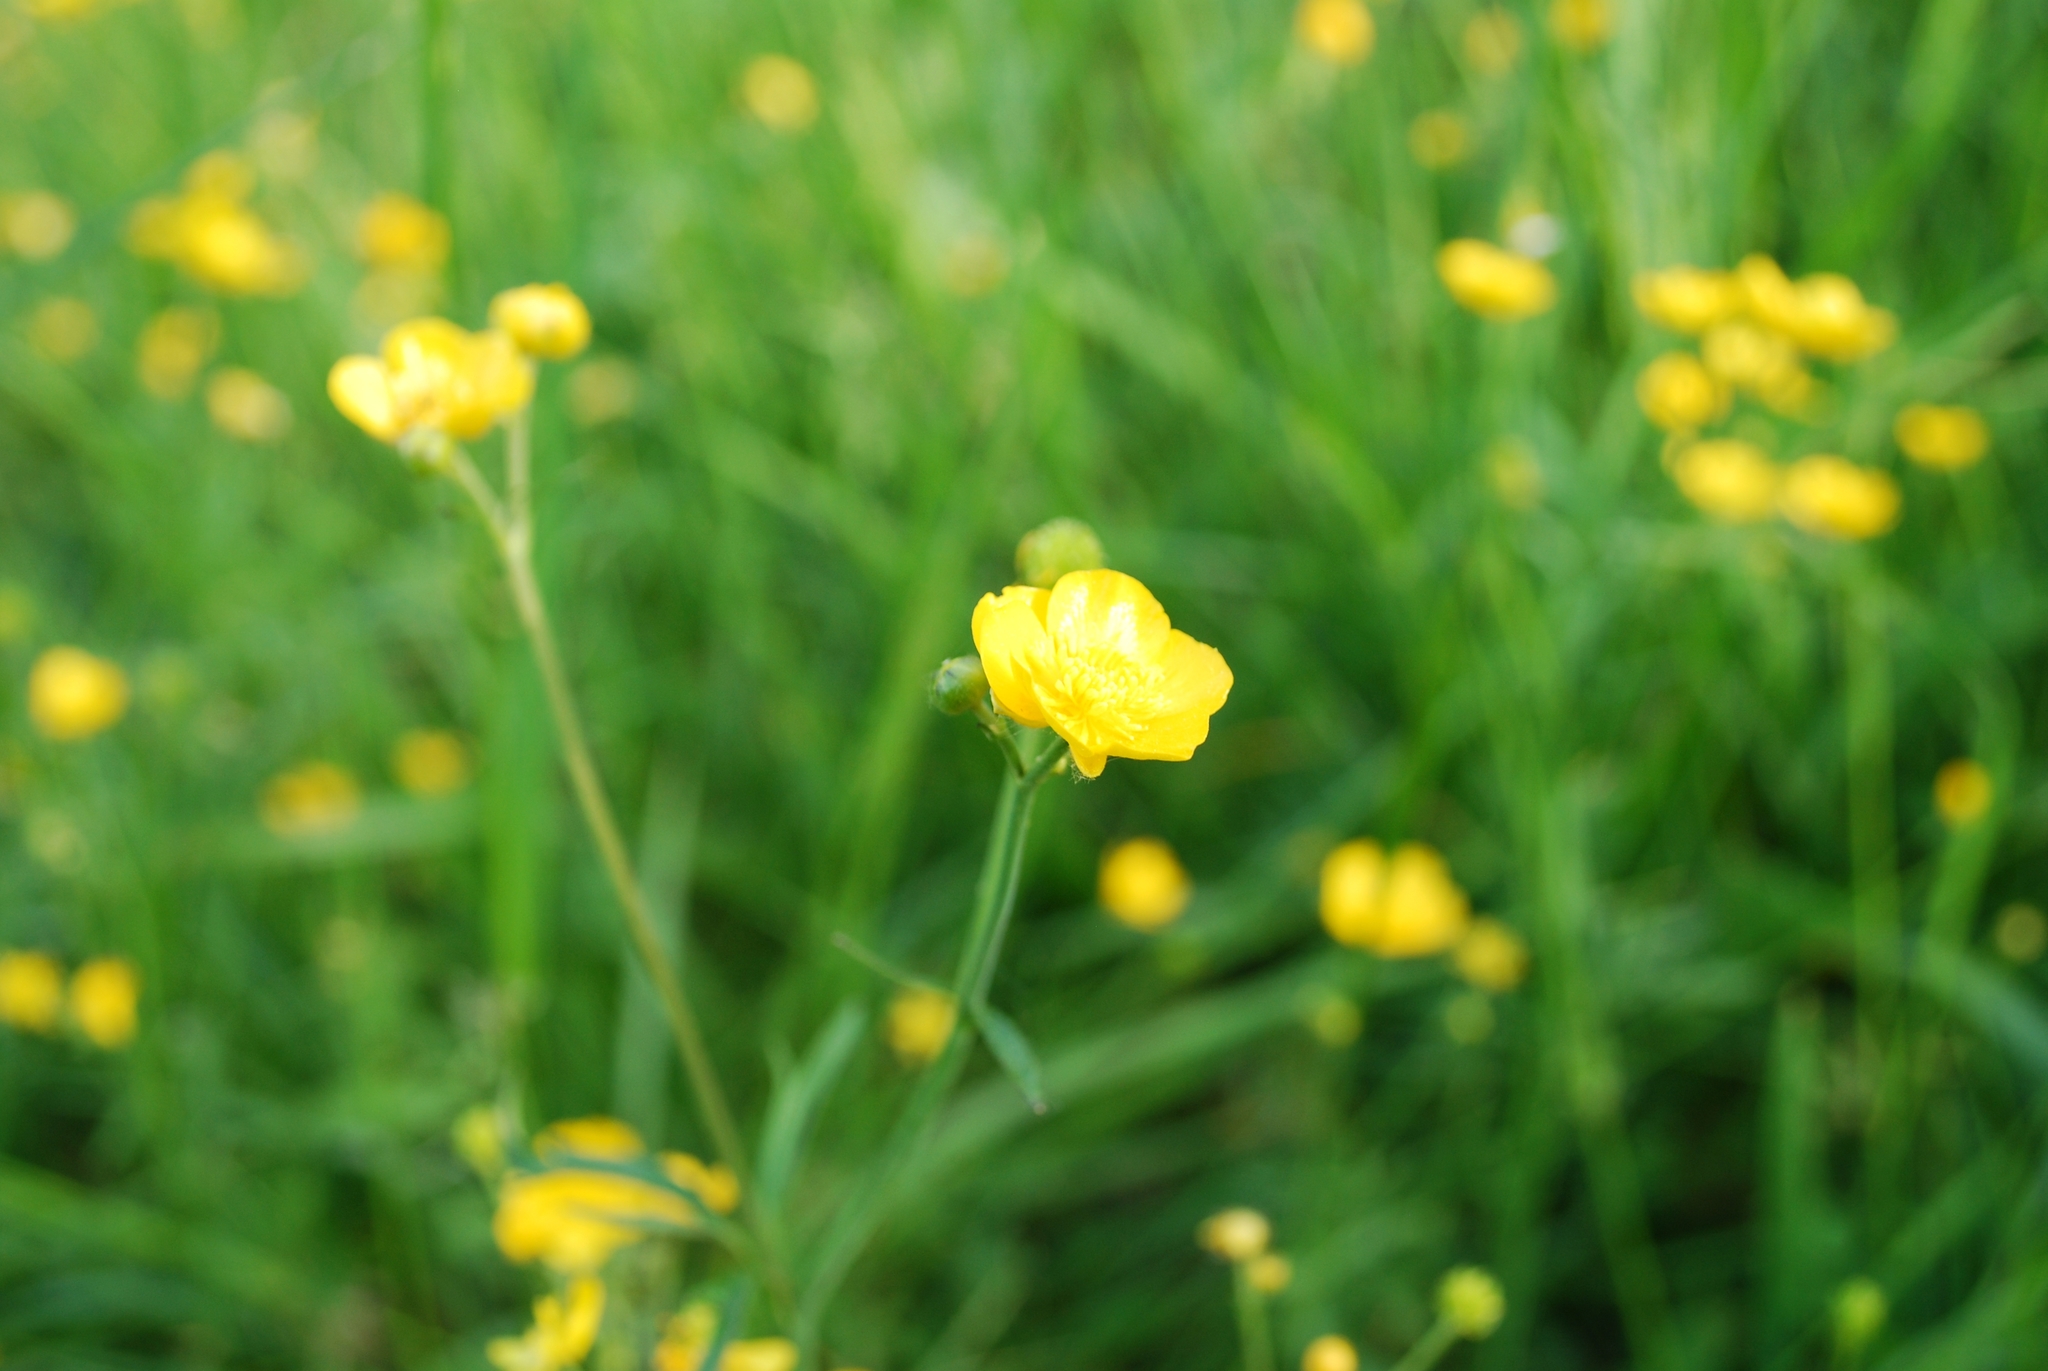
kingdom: Plantae
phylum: Tracheophyta
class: Magnoliopsida
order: Ranunculales
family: Ranunculaceae
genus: Ranunculus
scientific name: Ranunculus acris
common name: Meadow buttercup
